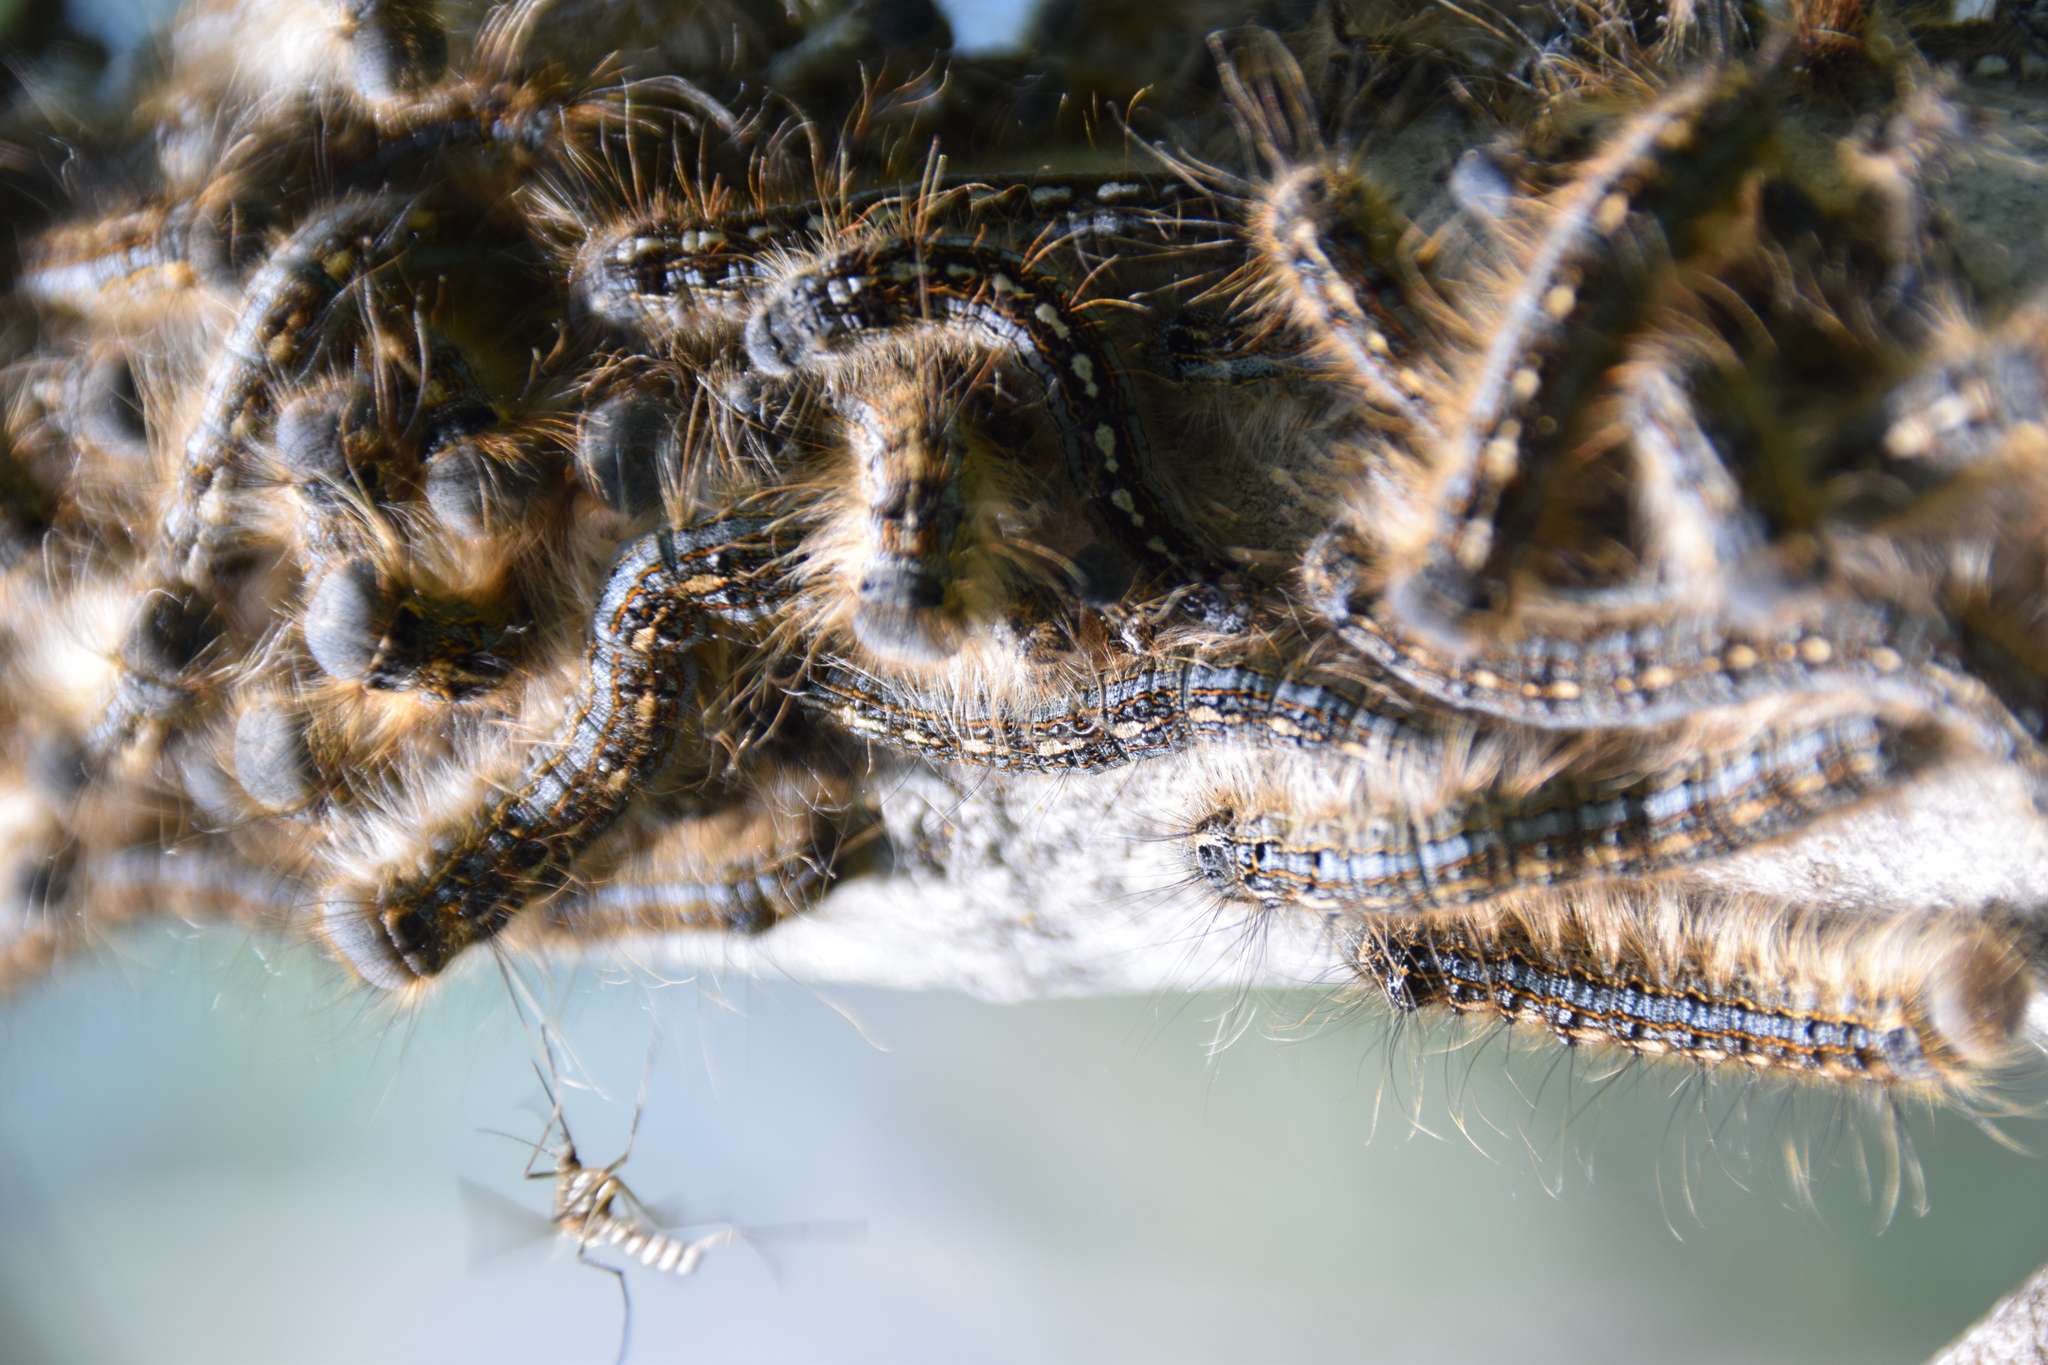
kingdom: Animalia
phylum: Arthropoda
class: Insecta
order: Lepidoptera
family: Lasiocampidae
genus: Malacosoma
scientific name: Malacosoma disstria
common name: Forest tent caterpillar
